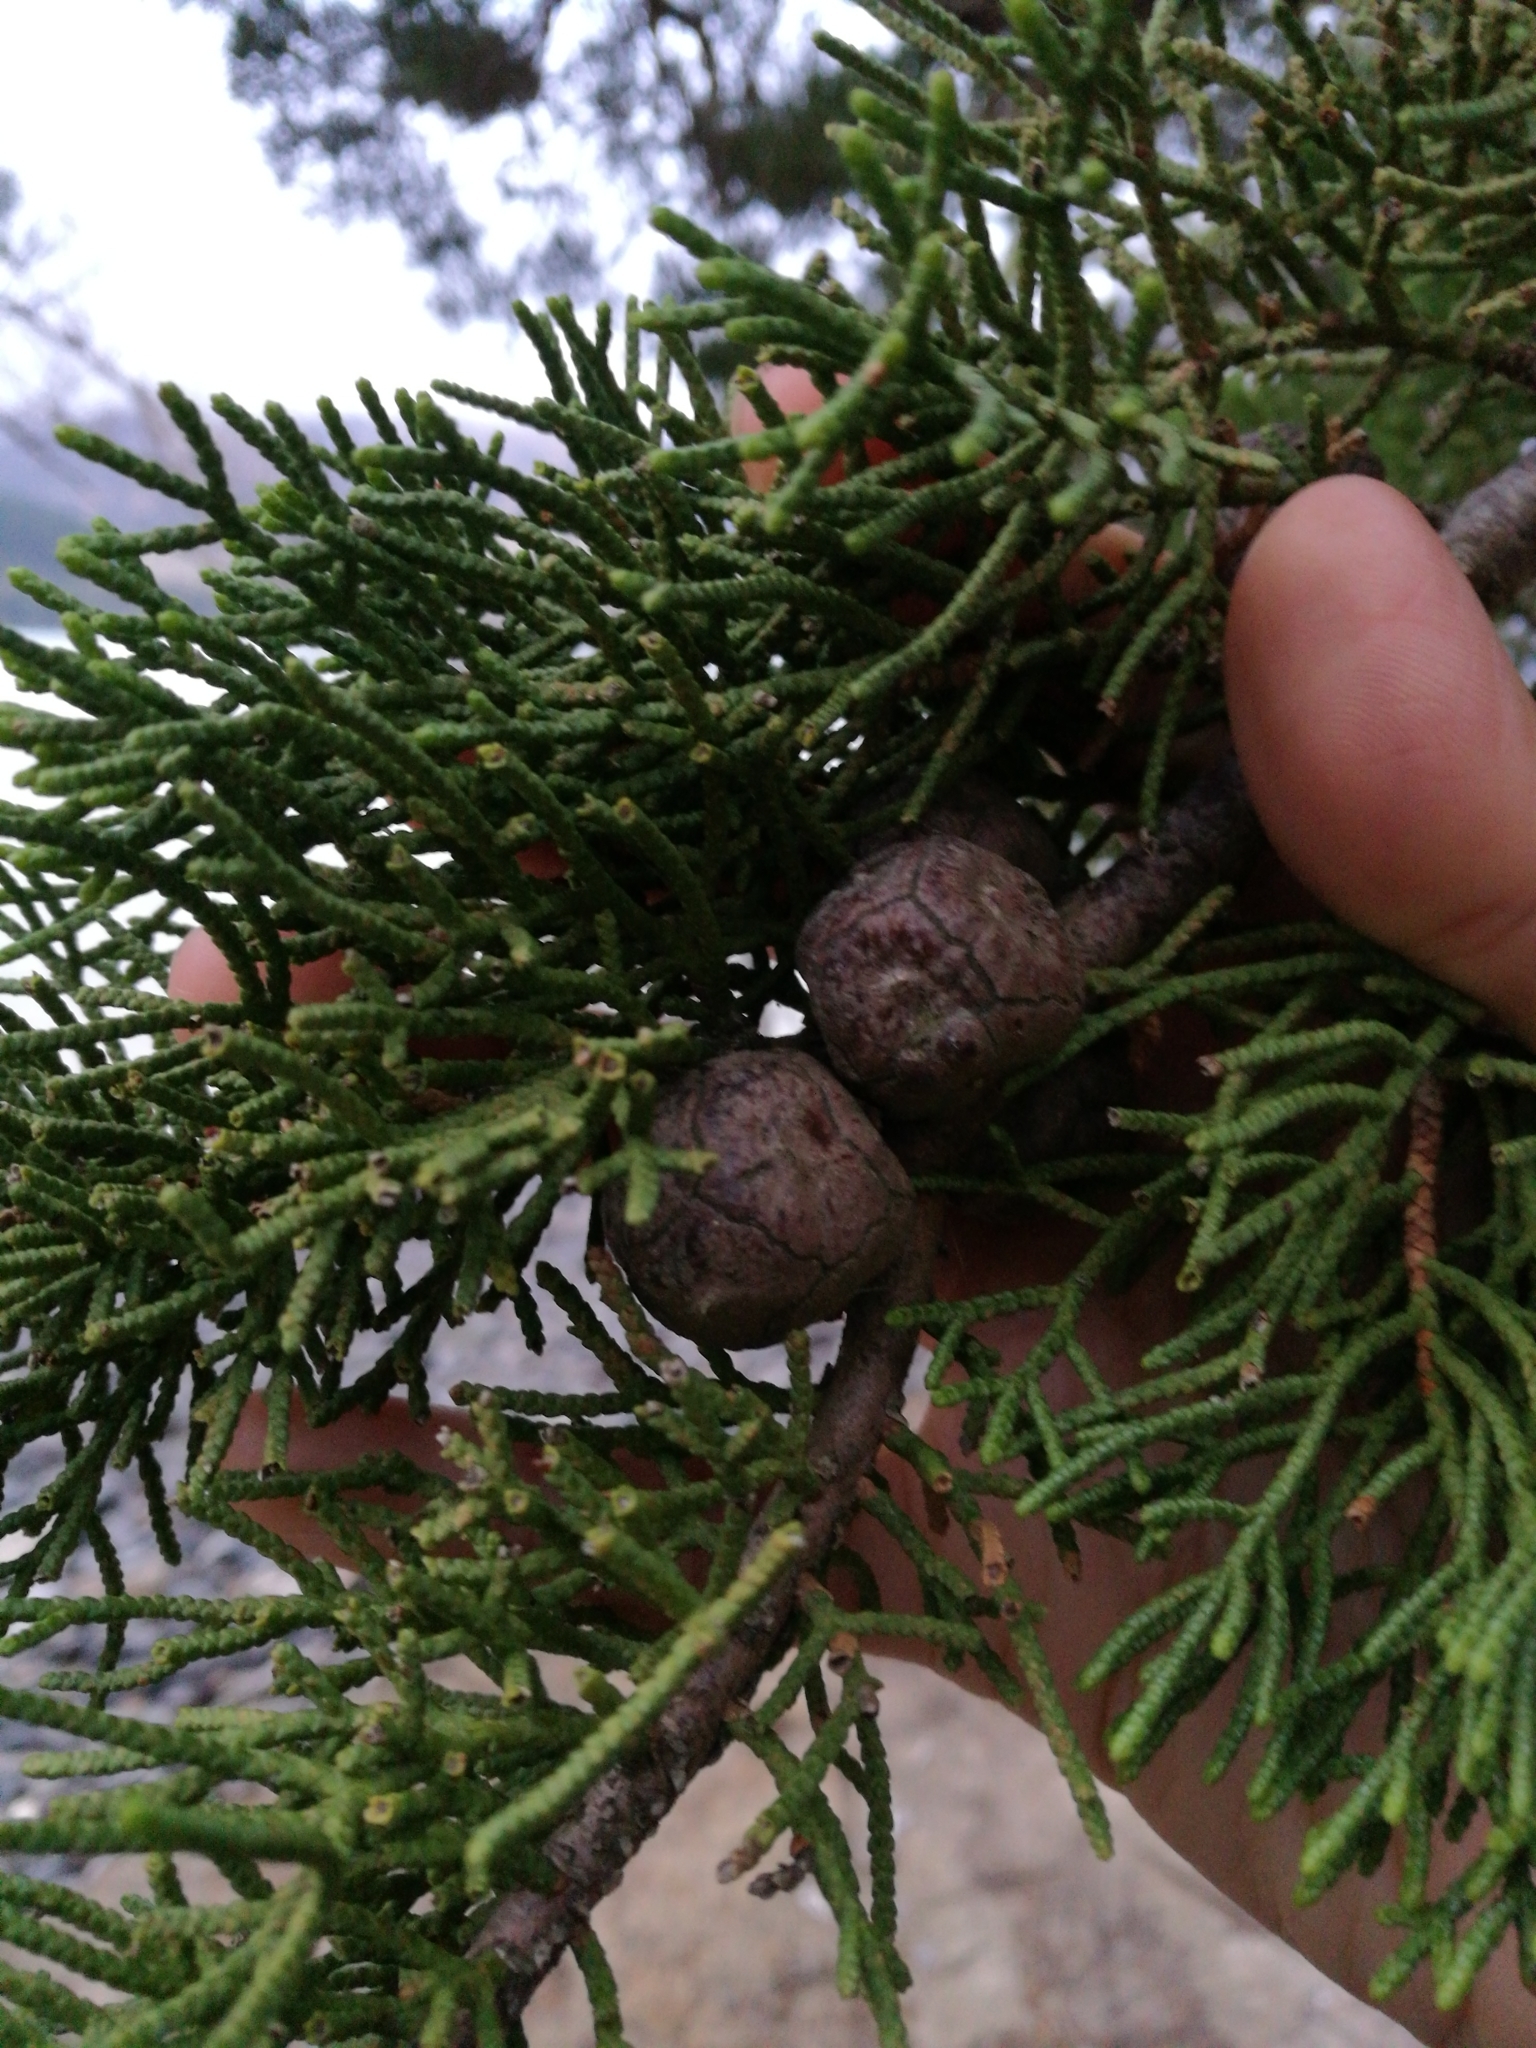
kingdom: Plantae
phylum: Tracheophyta
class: Pinopsida
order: Pinales
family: Cupressaceae
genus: Cupressus
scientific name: Cupressus macrocarpa
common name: Monterey cypress
